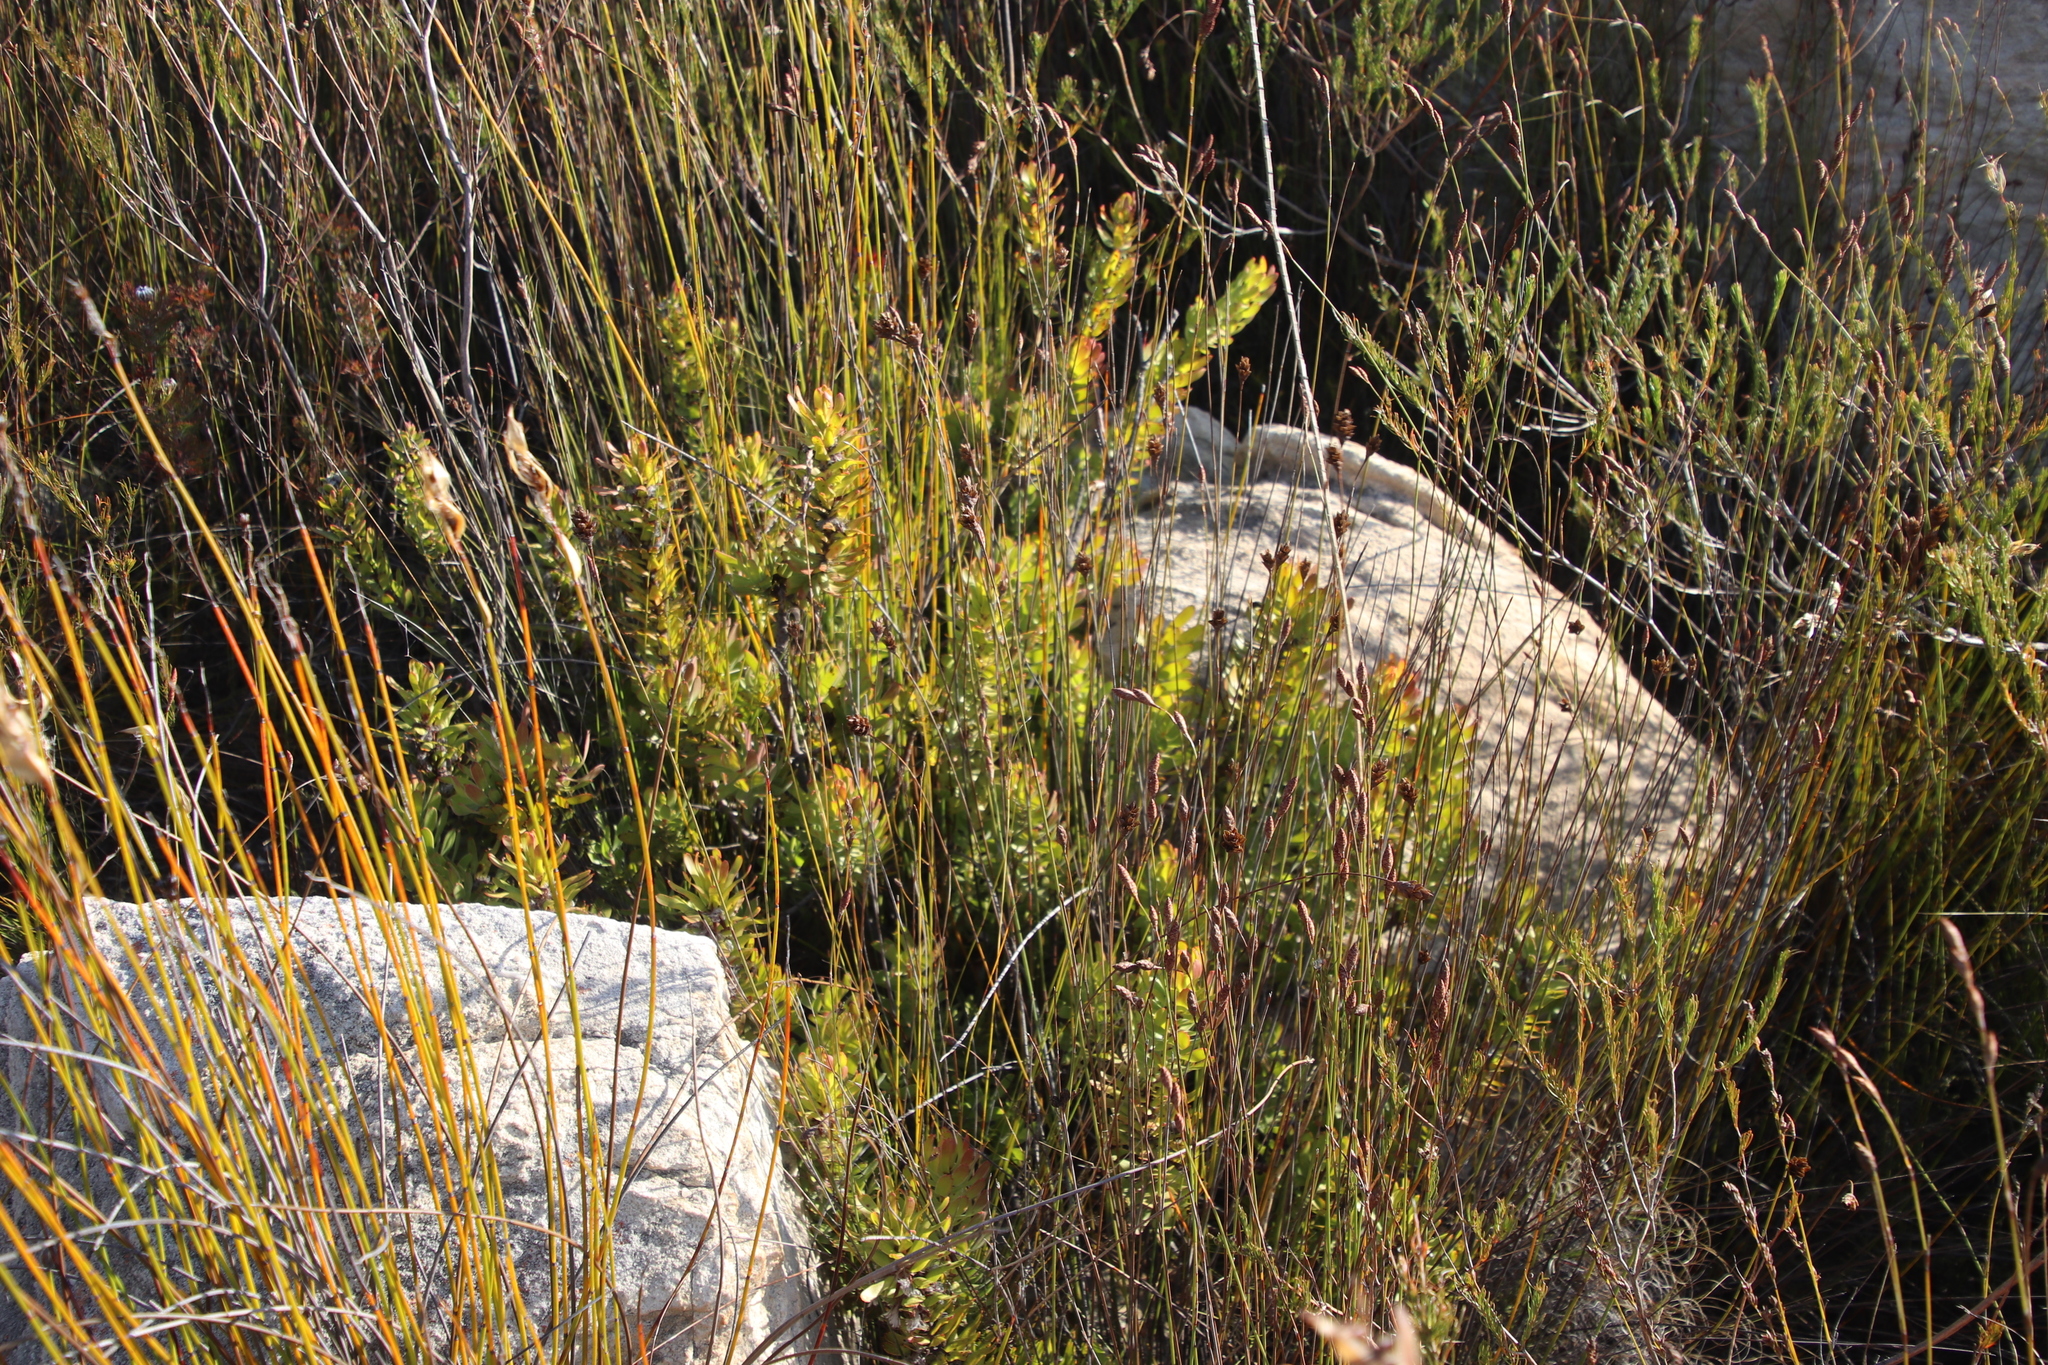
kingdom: Plantae
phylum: Tracheophyta
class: Magnoliopsida
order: Proteales
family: Proteaceae
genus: Mimetes
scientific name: Mimetes cucullatus
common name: Common pagoda
